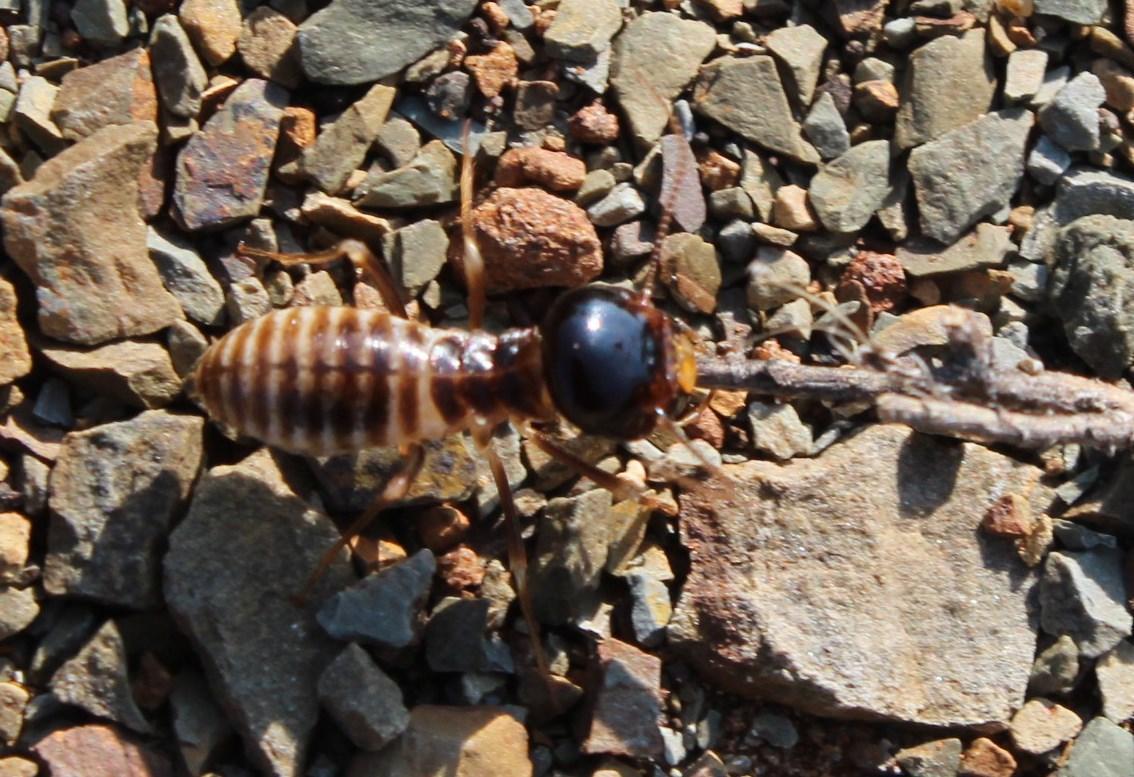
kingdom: Animalia
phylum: Arthropoda
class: Insecta
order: Blattodea
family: Hodotermitidae
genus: Hodotermes
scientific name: Hodotermes mossambicus
